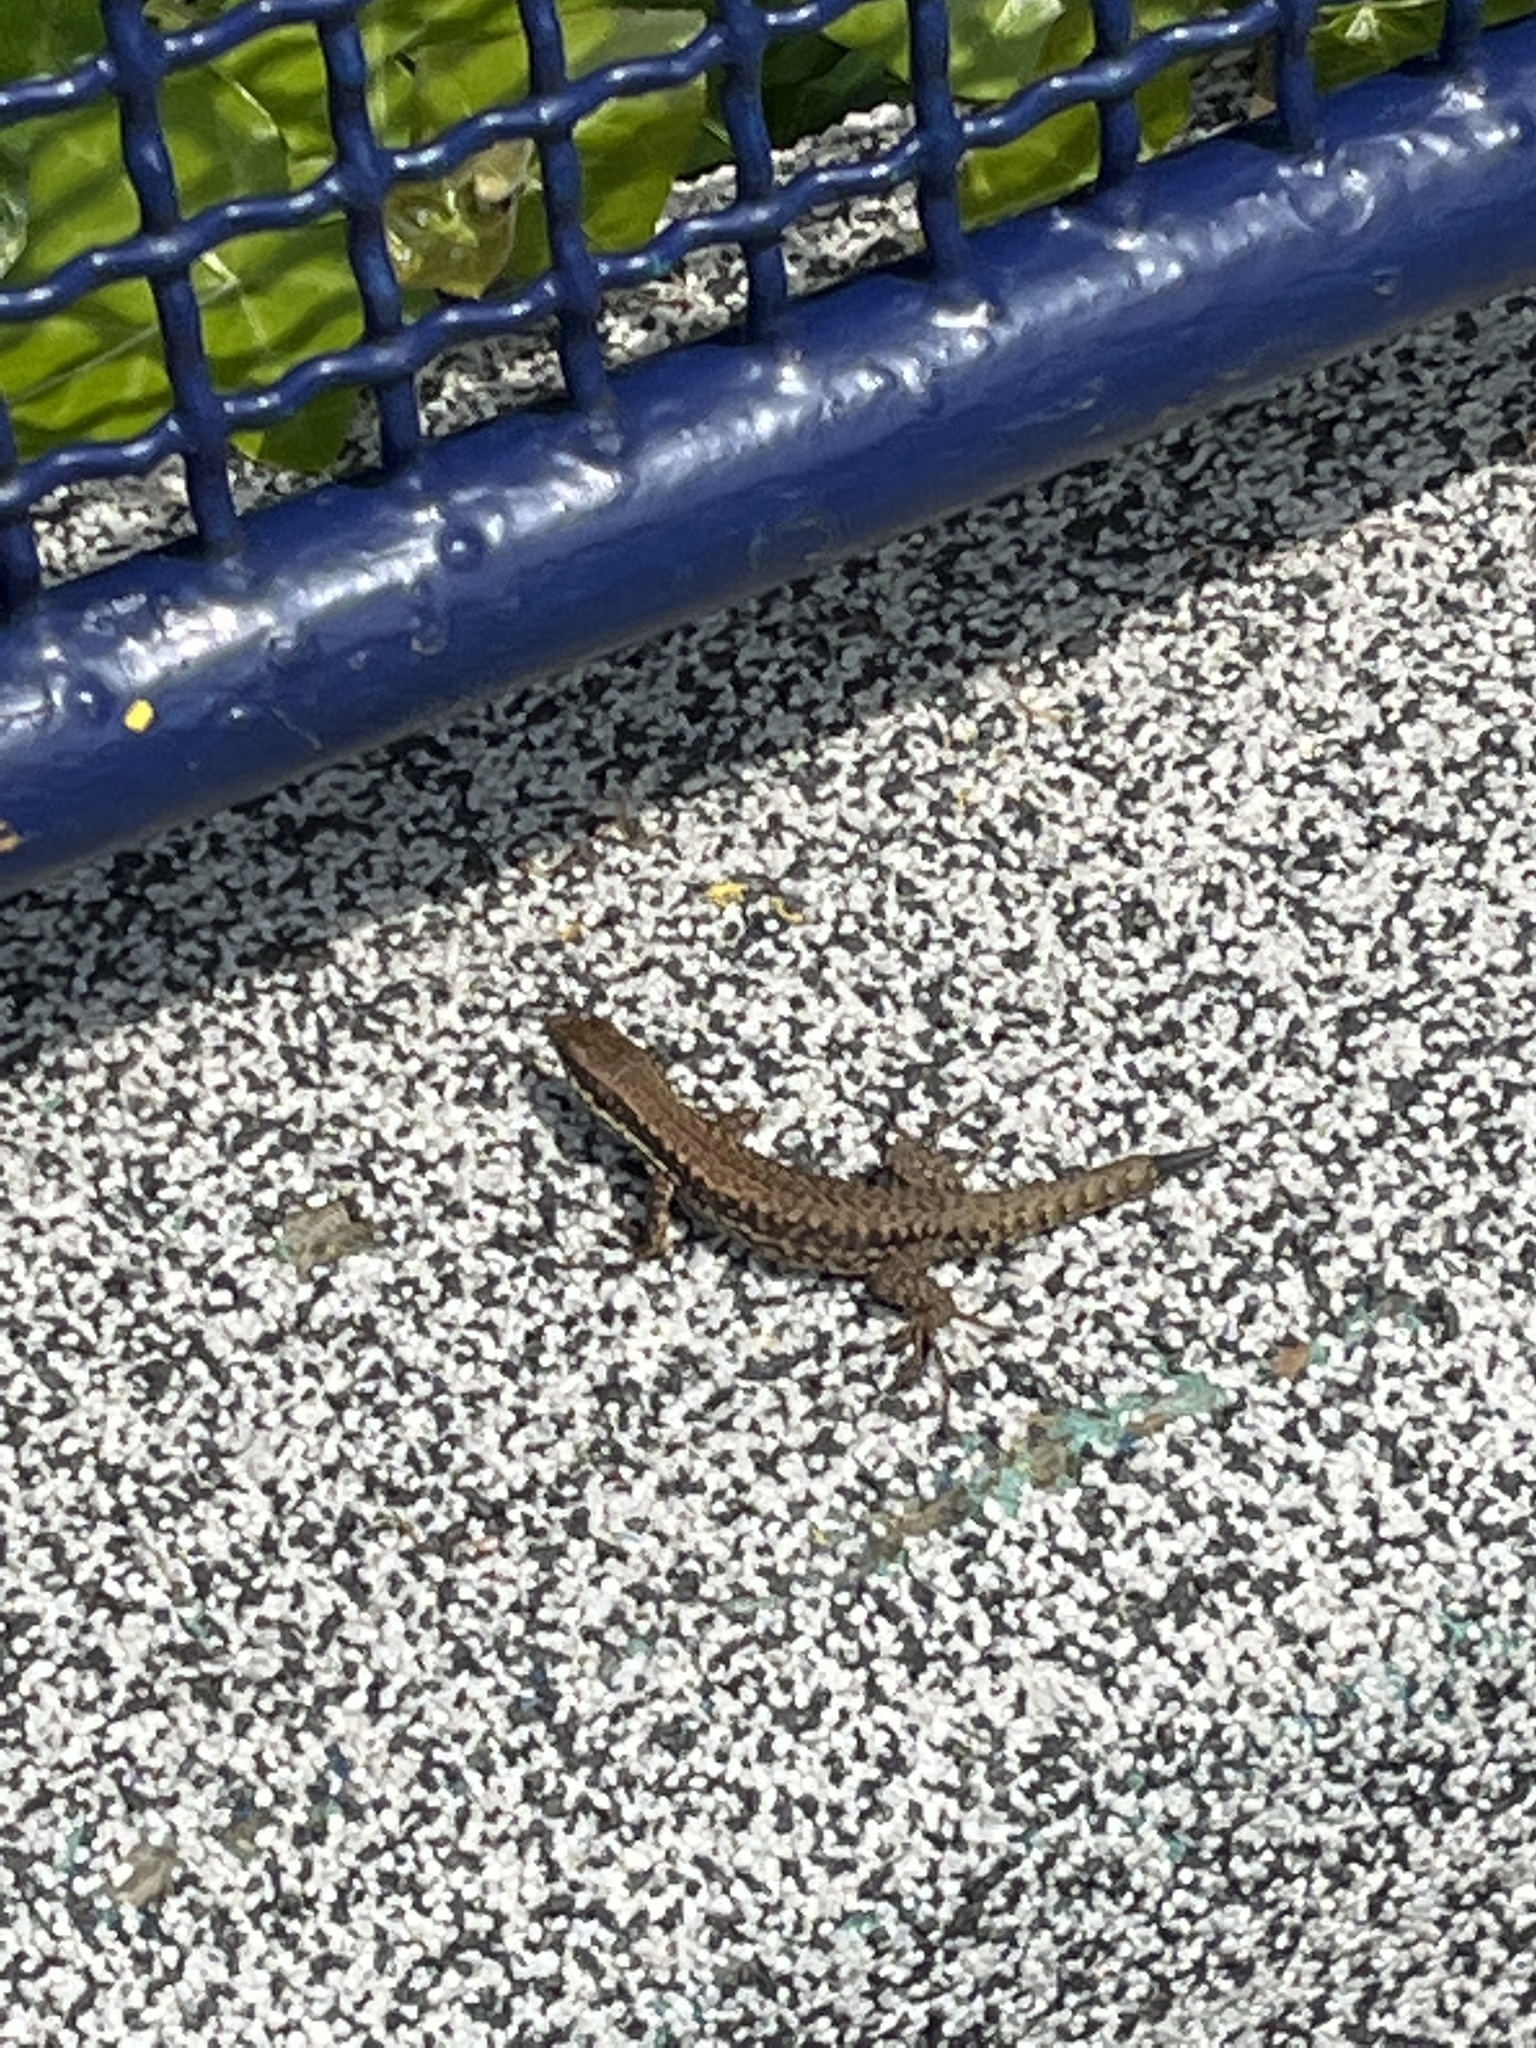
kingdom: Animalia
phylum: Chordata
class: Squamata
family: Lacertidae
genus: Podarcis
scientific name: Podarcis muralis
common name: Common wall lizard
